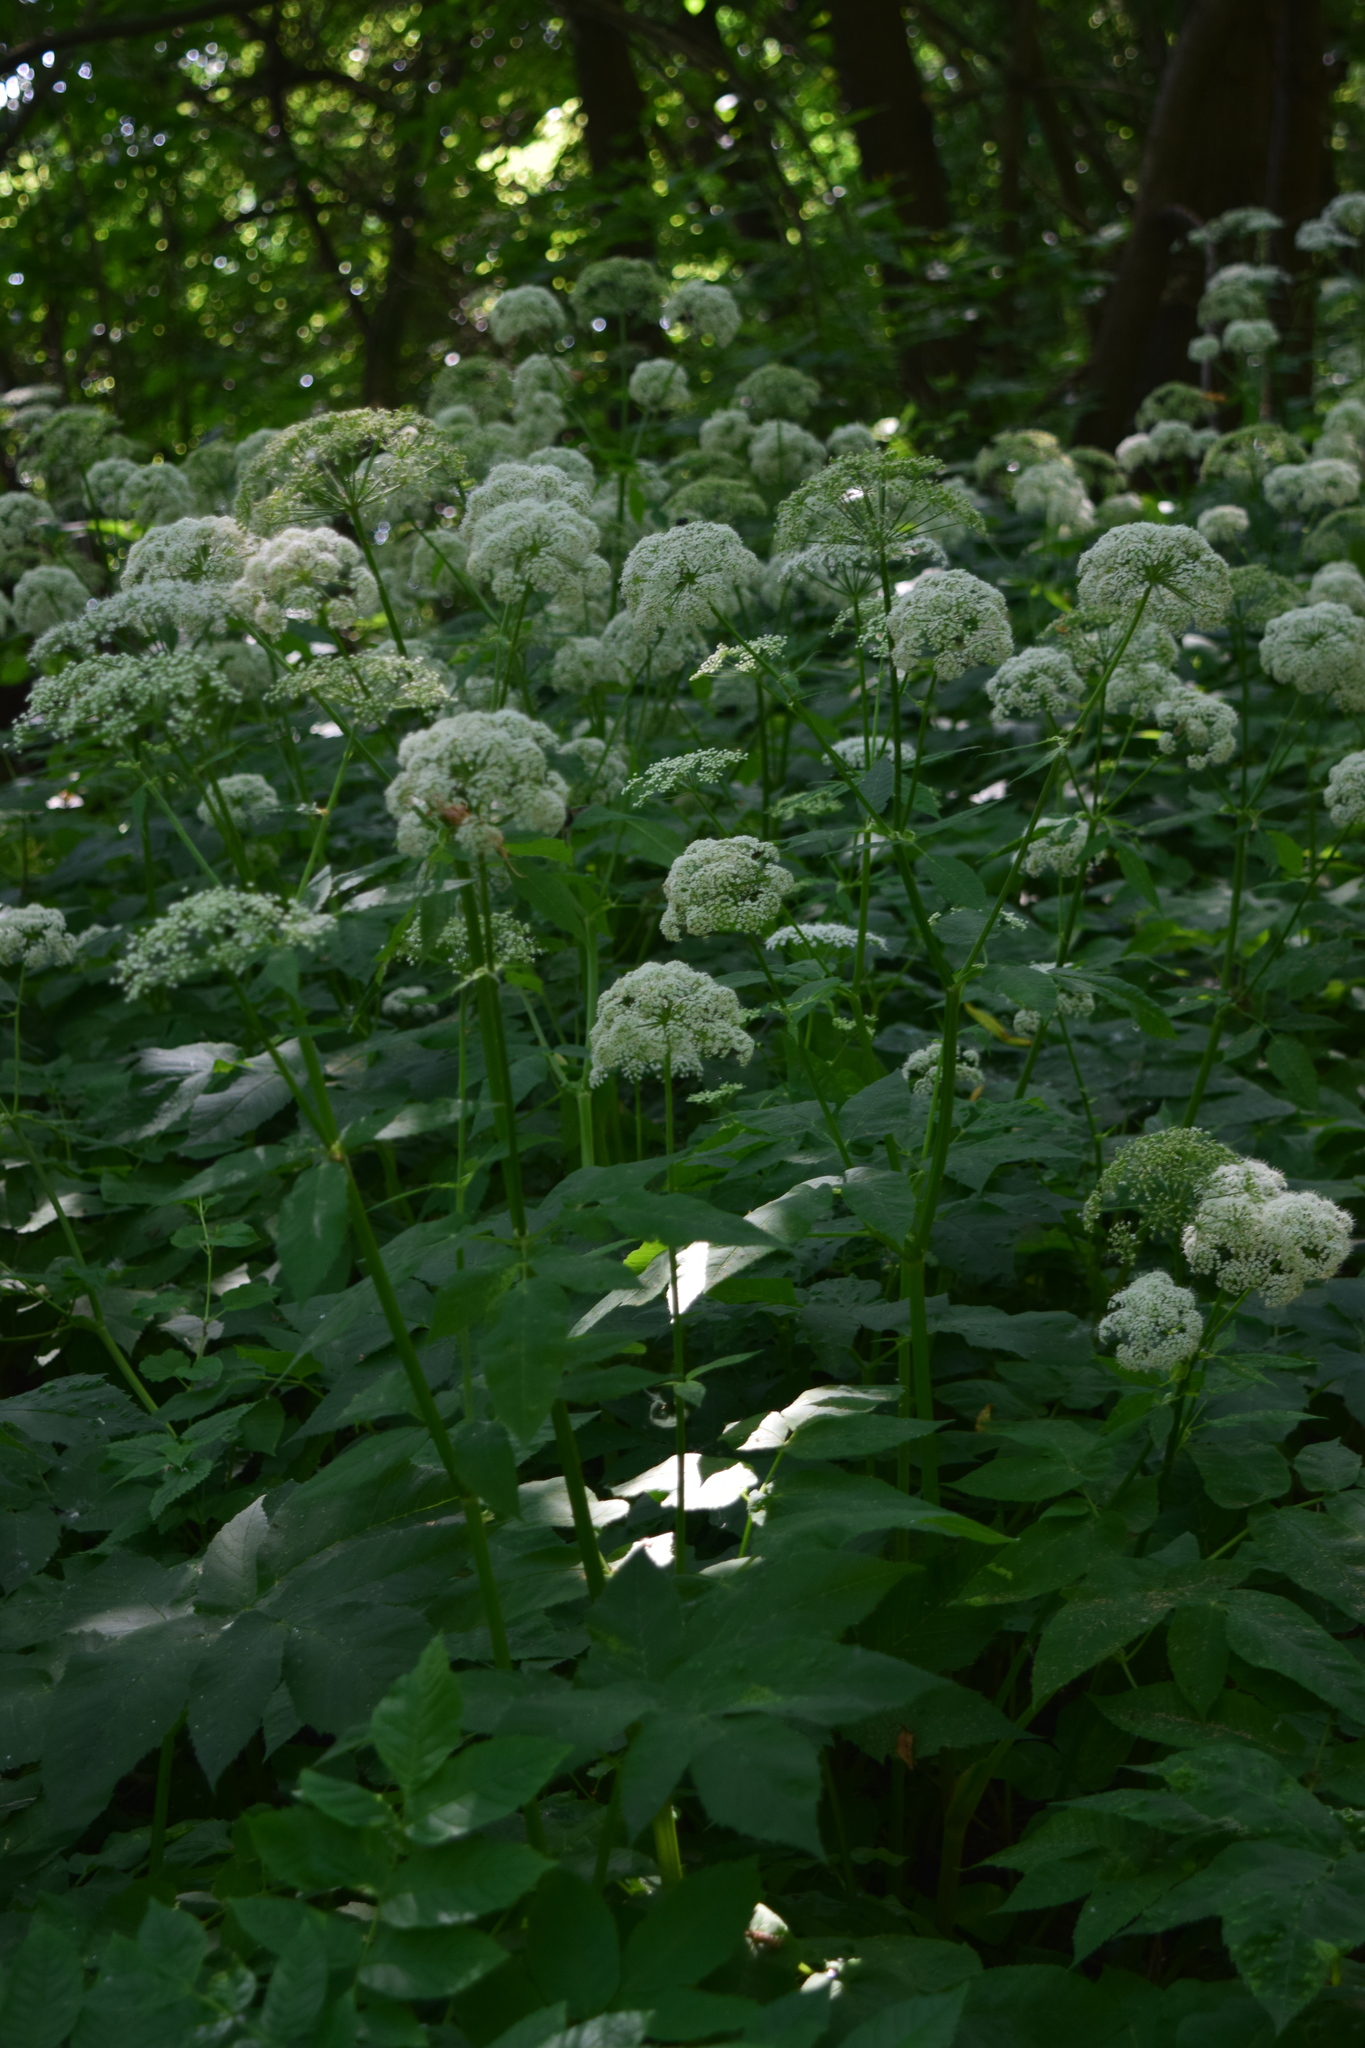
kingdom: Plantae
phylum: Tracheophyta
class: Magnoliopsida
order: Apiales
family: Apiaceae
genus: Aegopodium
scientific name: Aegopodium podagraria
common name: Ground-elder
